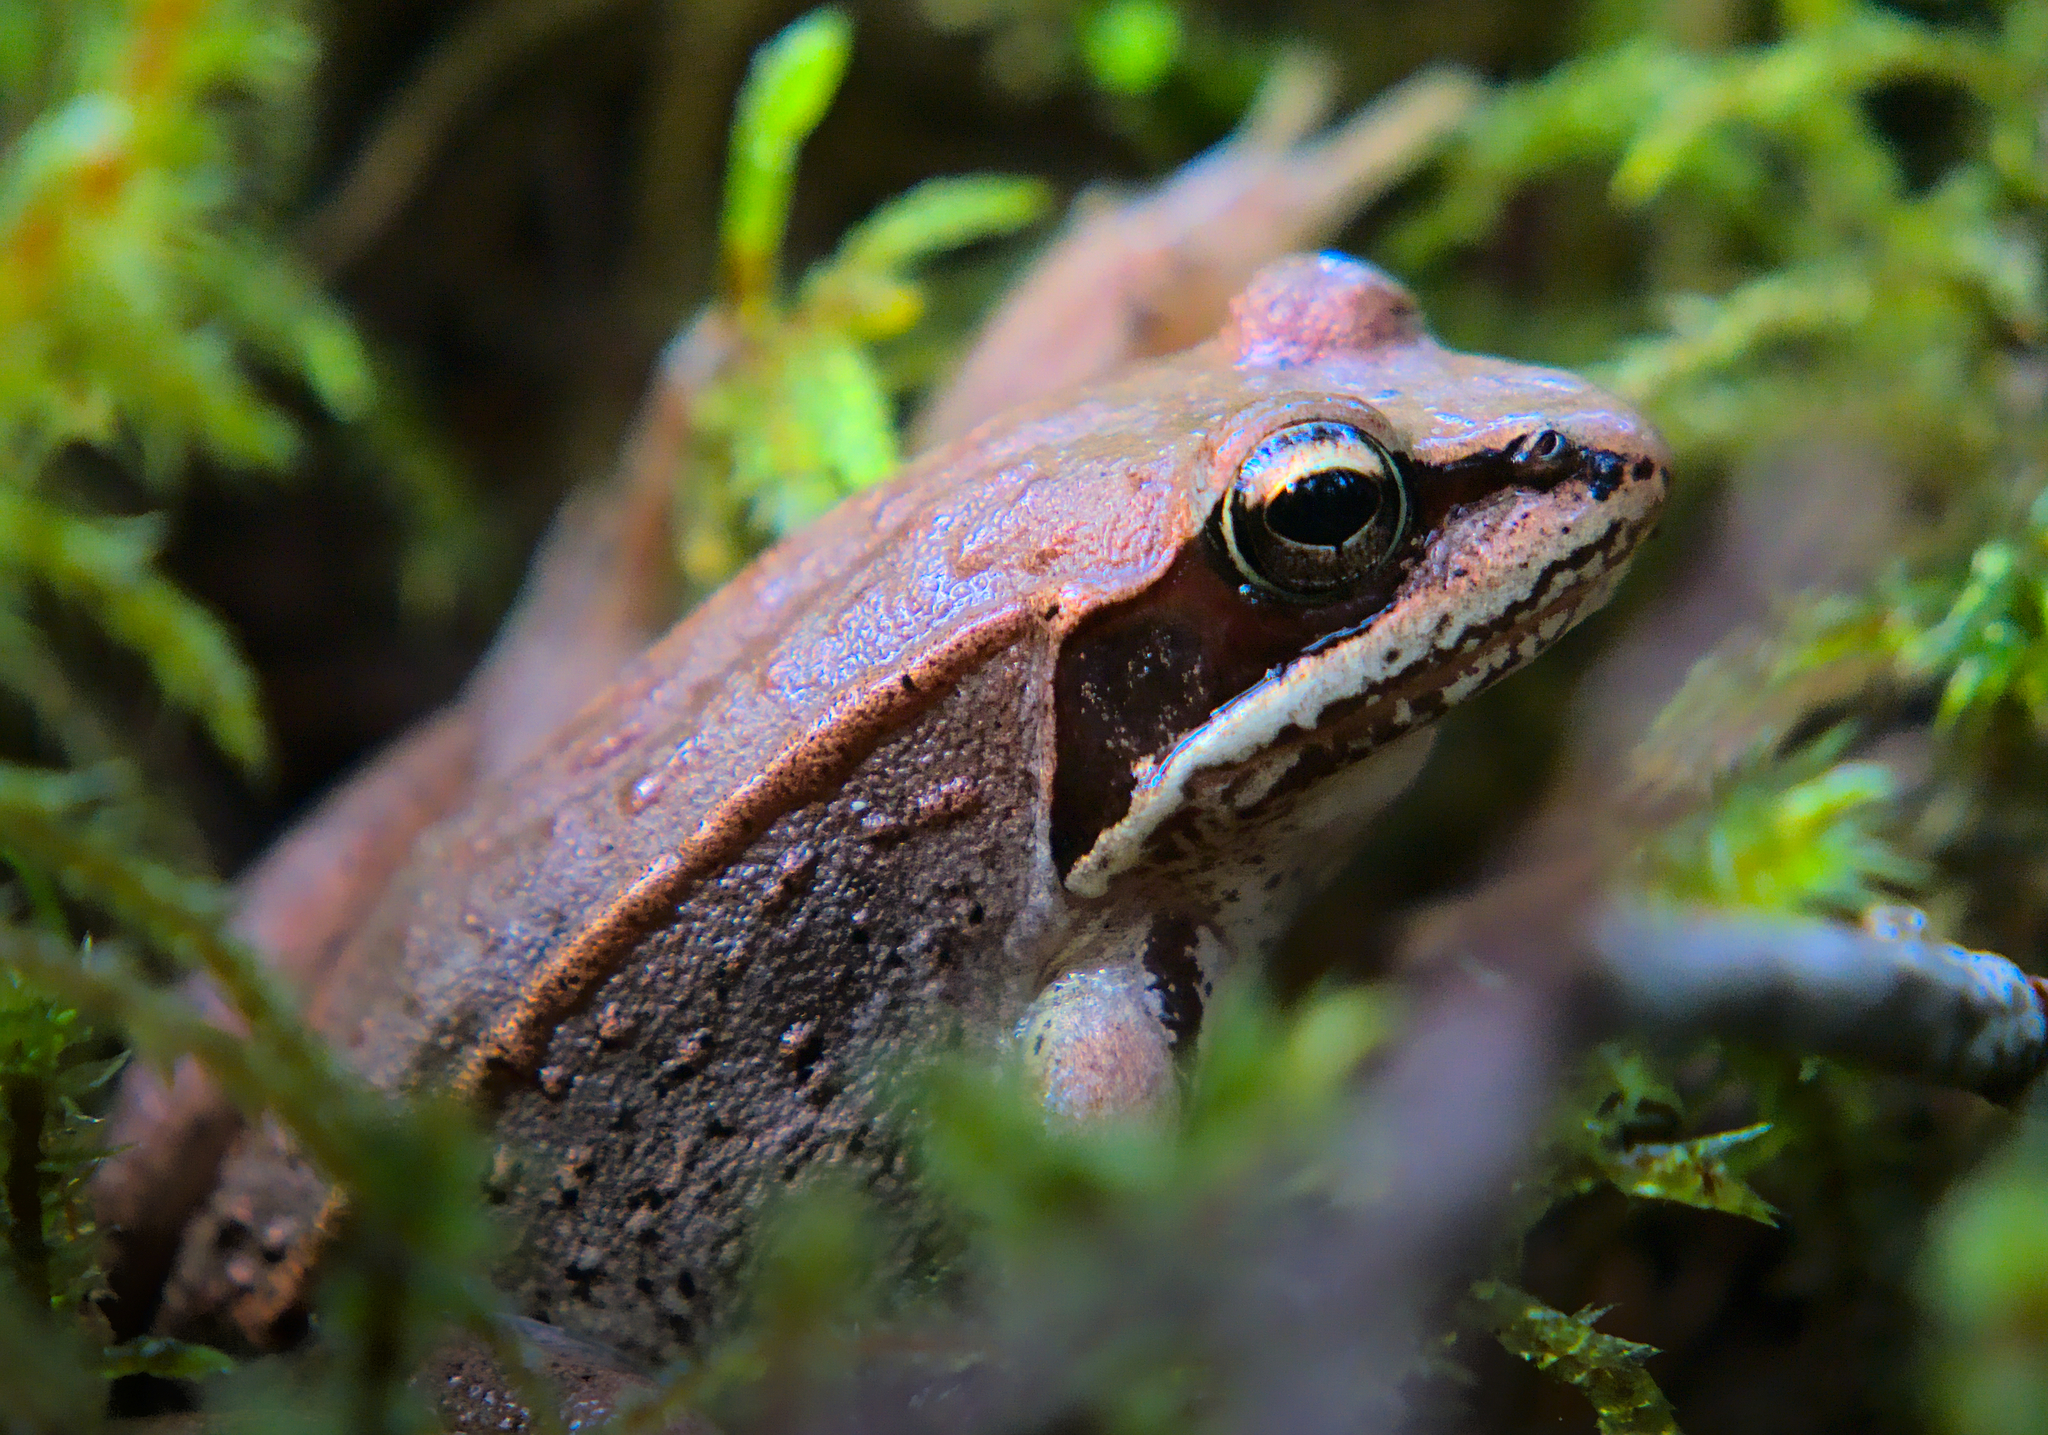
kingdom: Animalia
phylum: Chordata
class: Amphibia
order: Anura
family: Ranidae
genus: Lithobates
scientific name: Lithobates sylvaticus
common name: Wood frog
